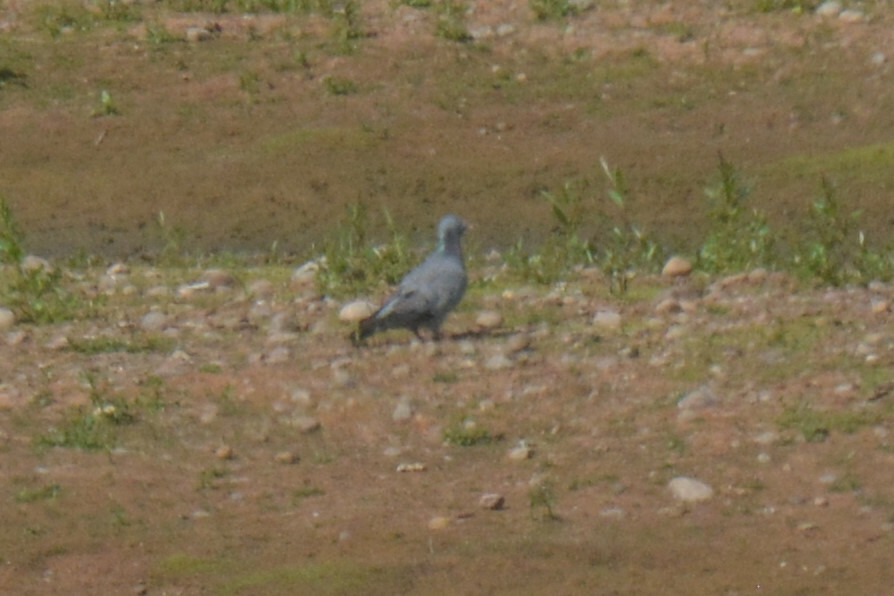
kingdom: Animalia
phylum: Chordata
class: Aves
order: Columbiformes
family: Columbidae
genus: Columba
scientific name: Columba oenas
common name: Stock dove
